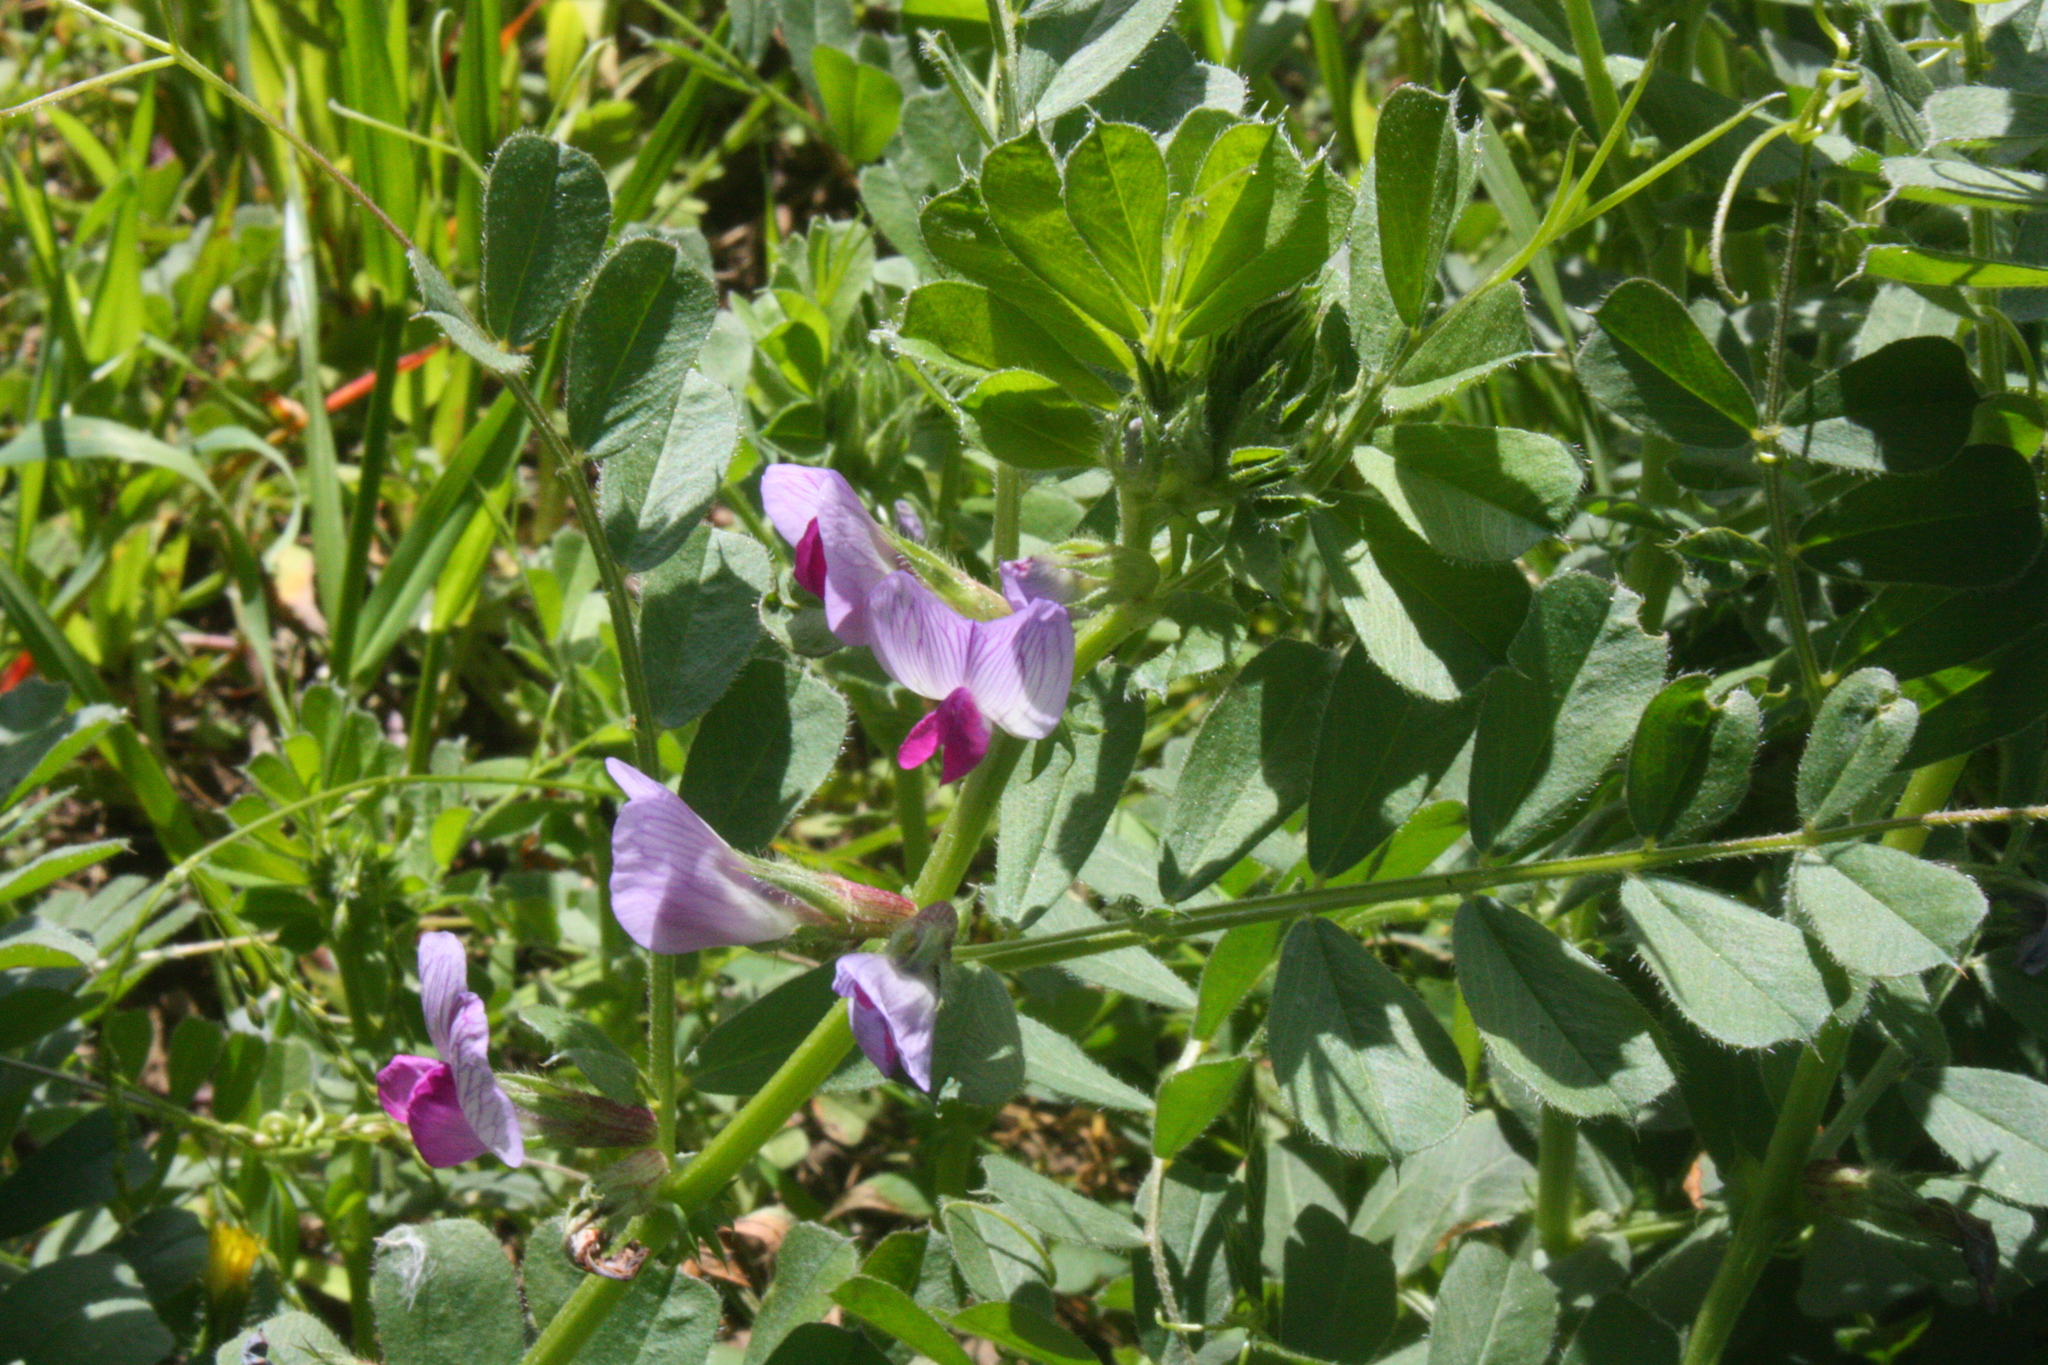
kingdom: Plantae
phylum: Tracheophyta
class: Magnoliopsida
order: Fabales
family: Fabaceae
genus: Vicia
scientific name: Vicia sativa
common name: Garden vetch
